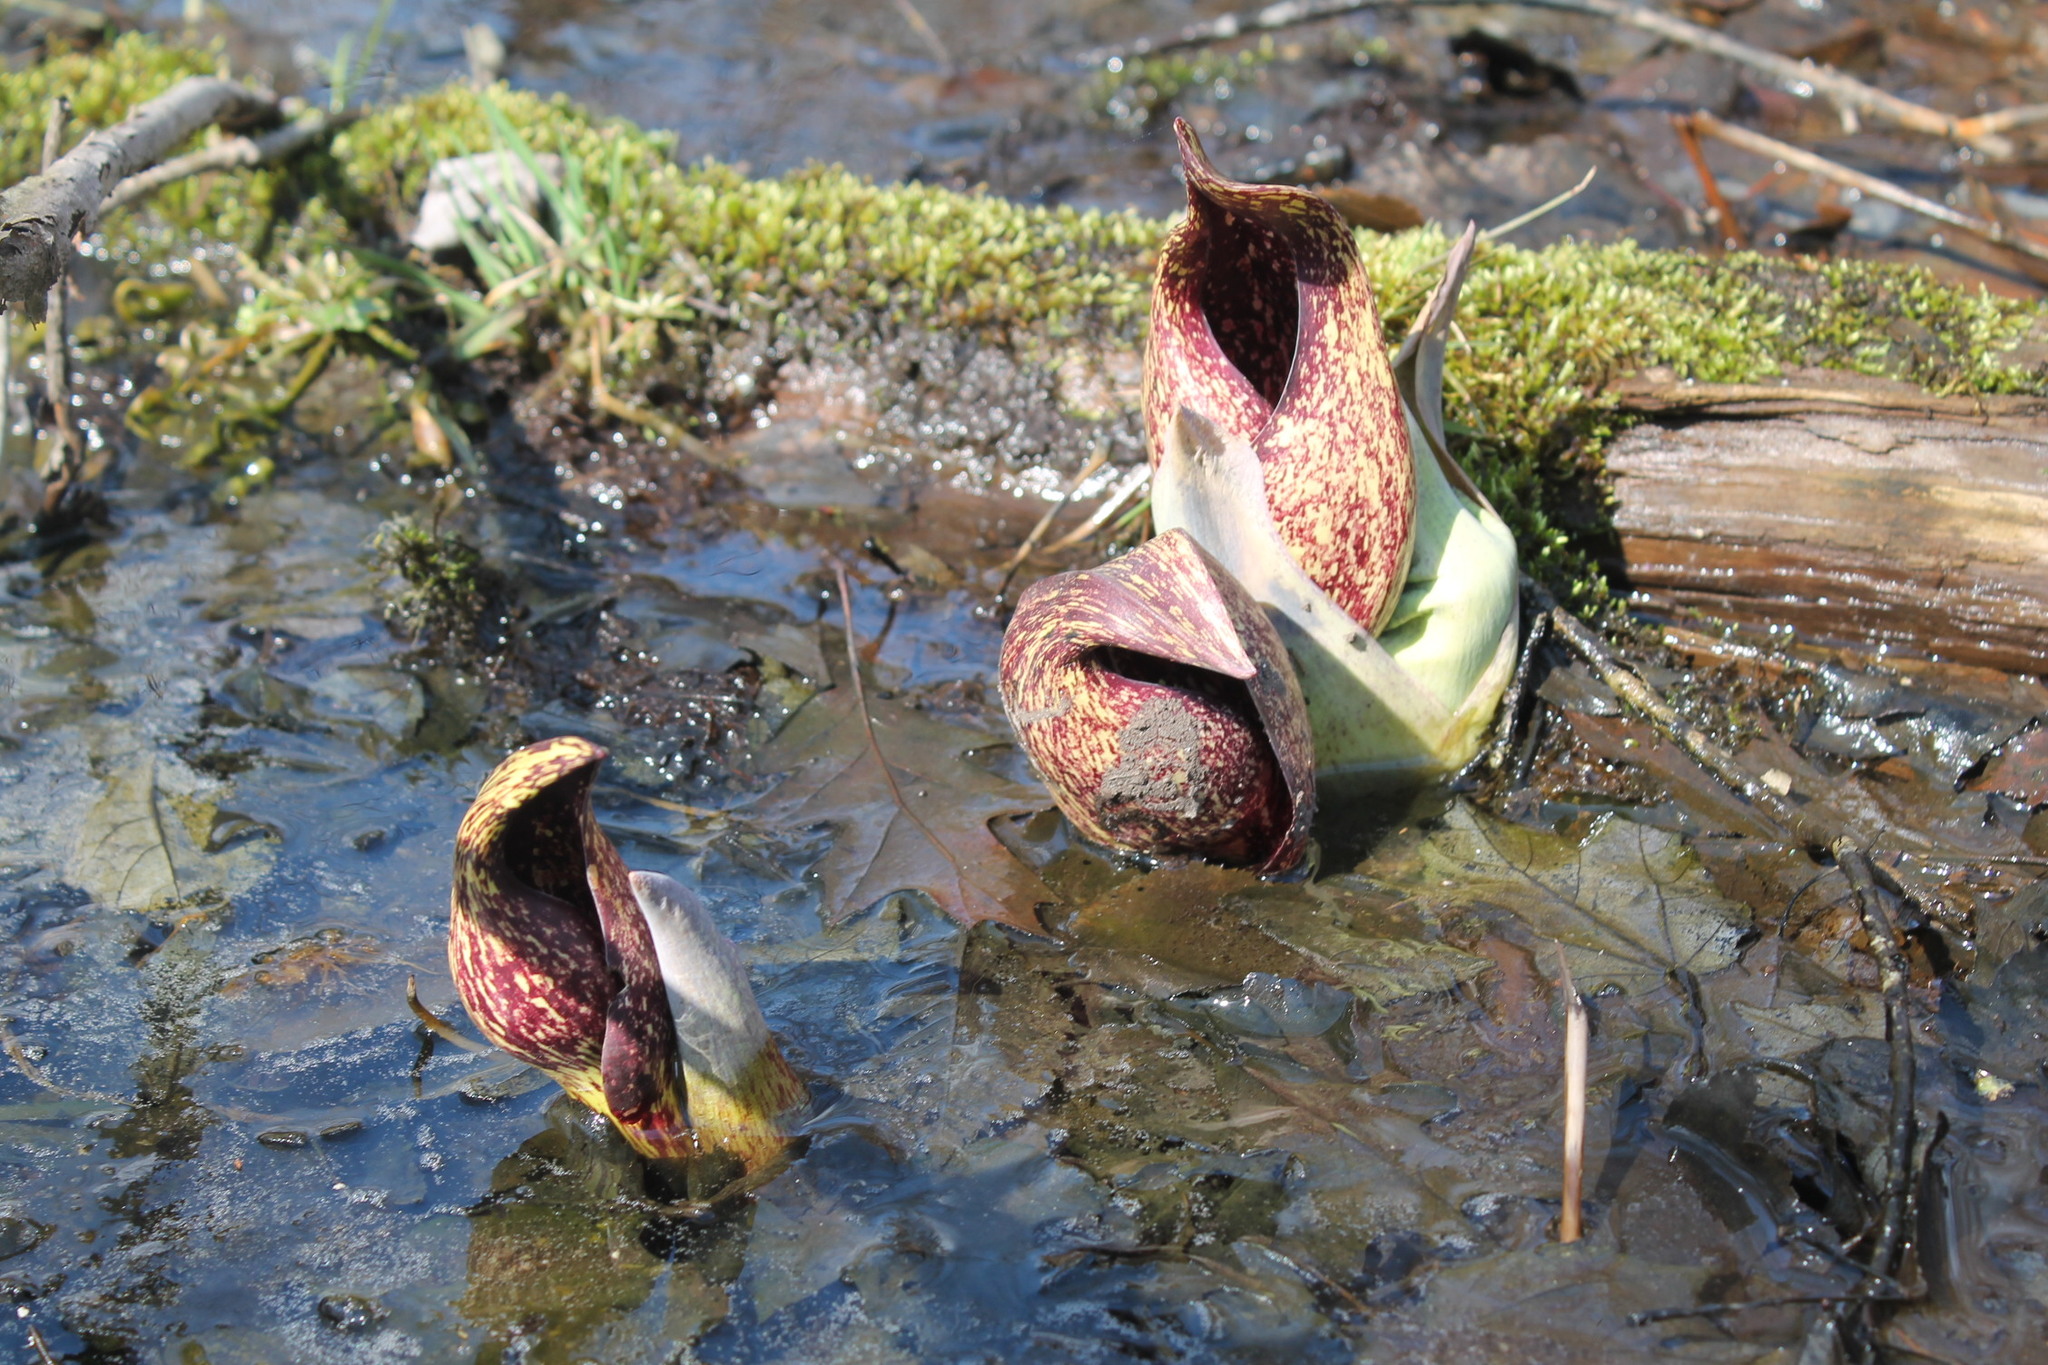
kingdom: Plantae
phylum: Tracheophyta
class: Liliopsida
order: Alismatales
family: Araceae
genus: Symplocarpus
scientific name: Symplocarpus foetidus
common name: Eastern skunk cabbage
